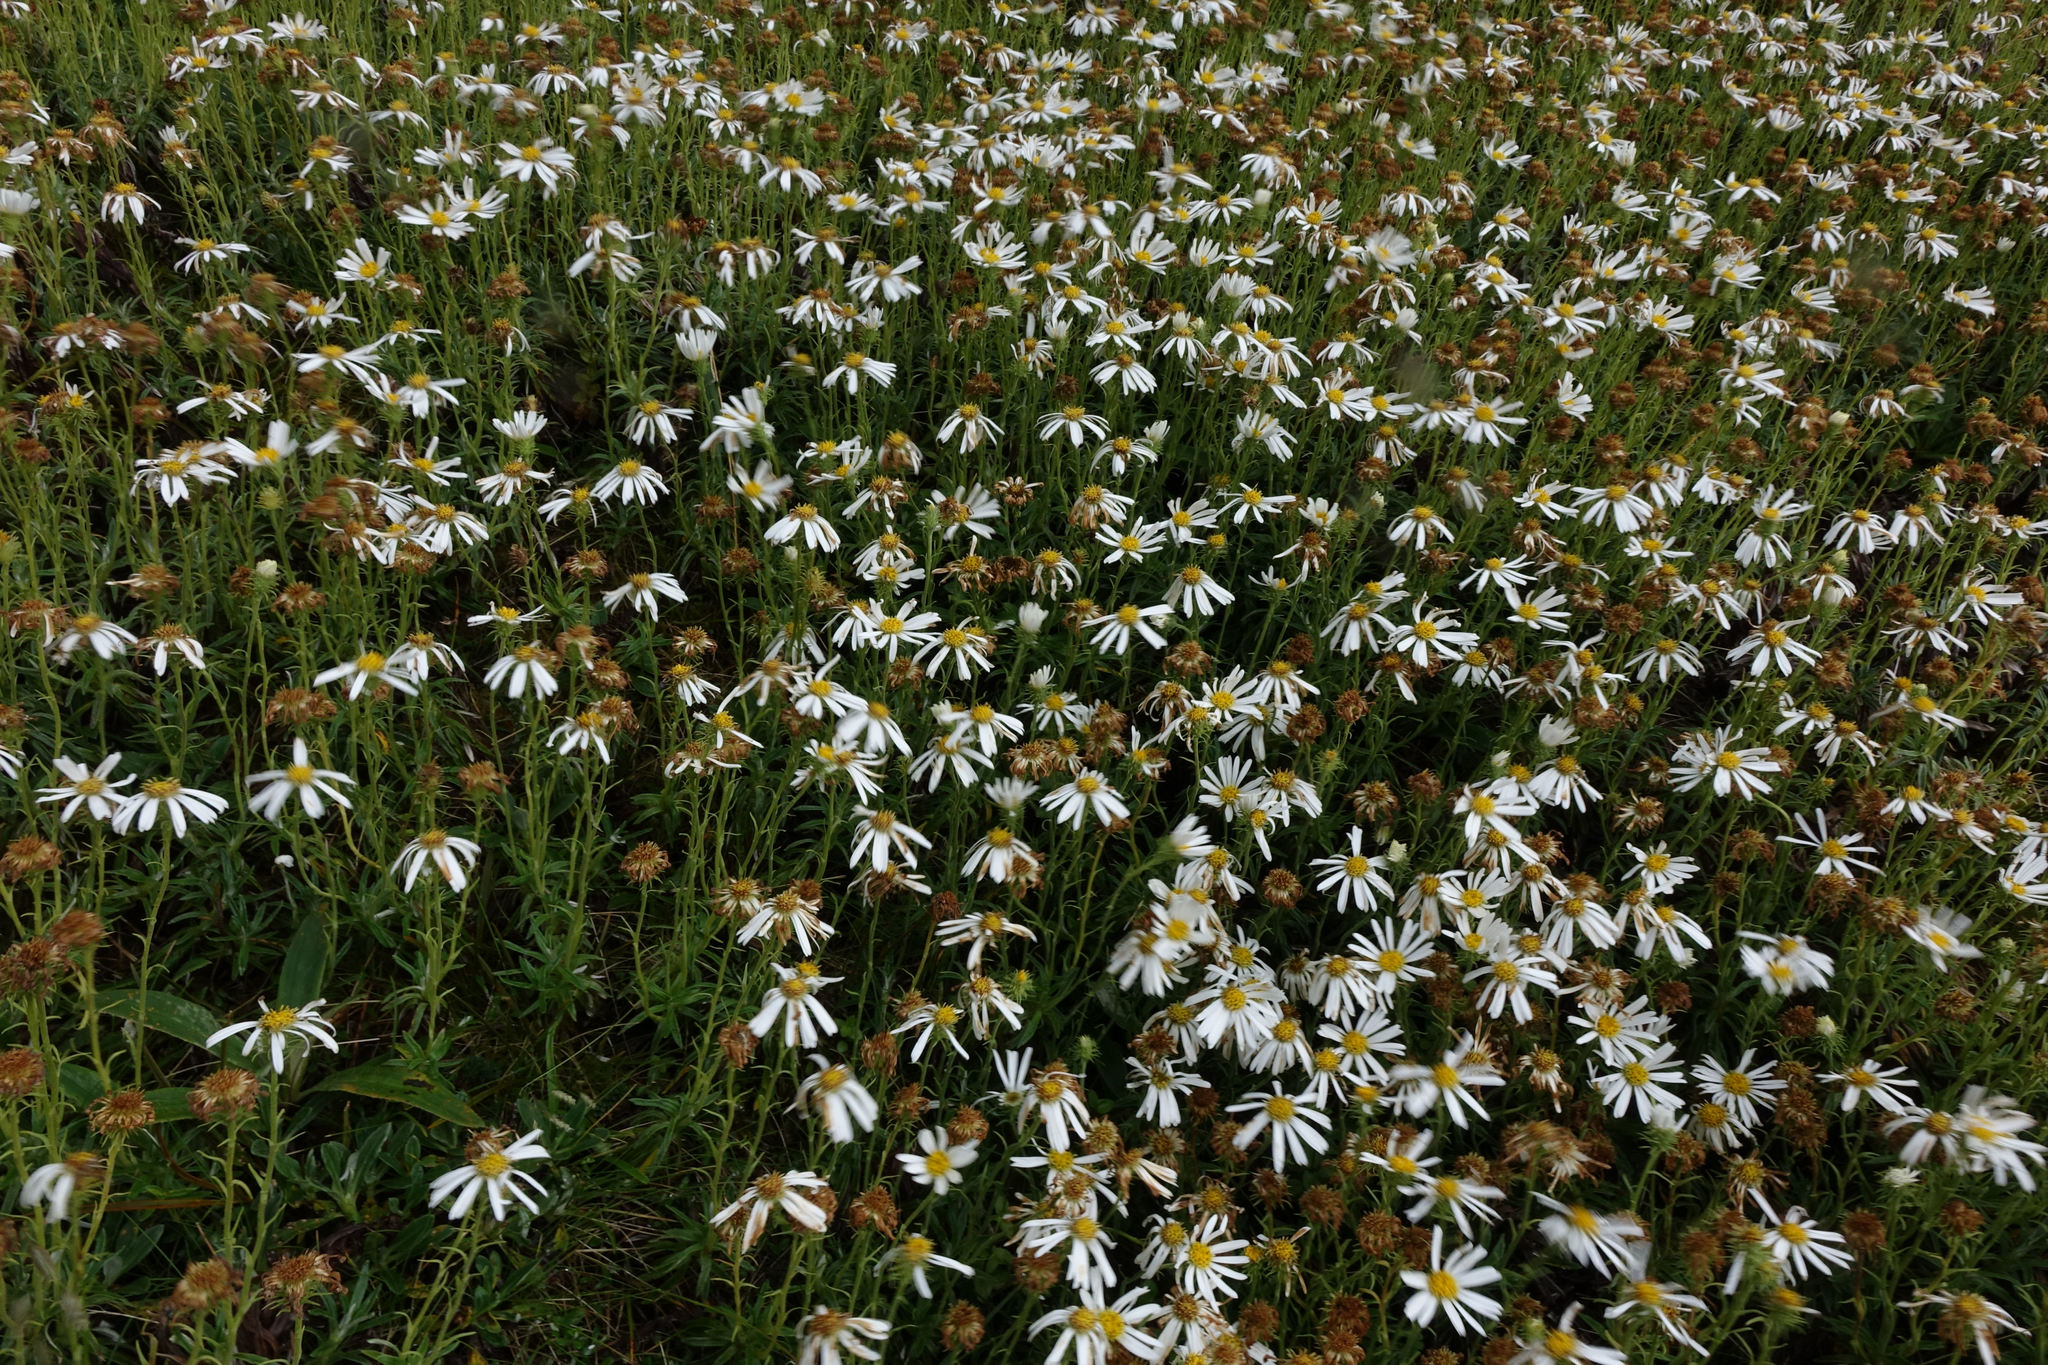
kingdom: Plantae
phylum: Tracheophyta
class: Magnoliopsida
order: Asterales
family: Asteraceae
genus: Celmisia
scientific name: Celmisia walkeri
